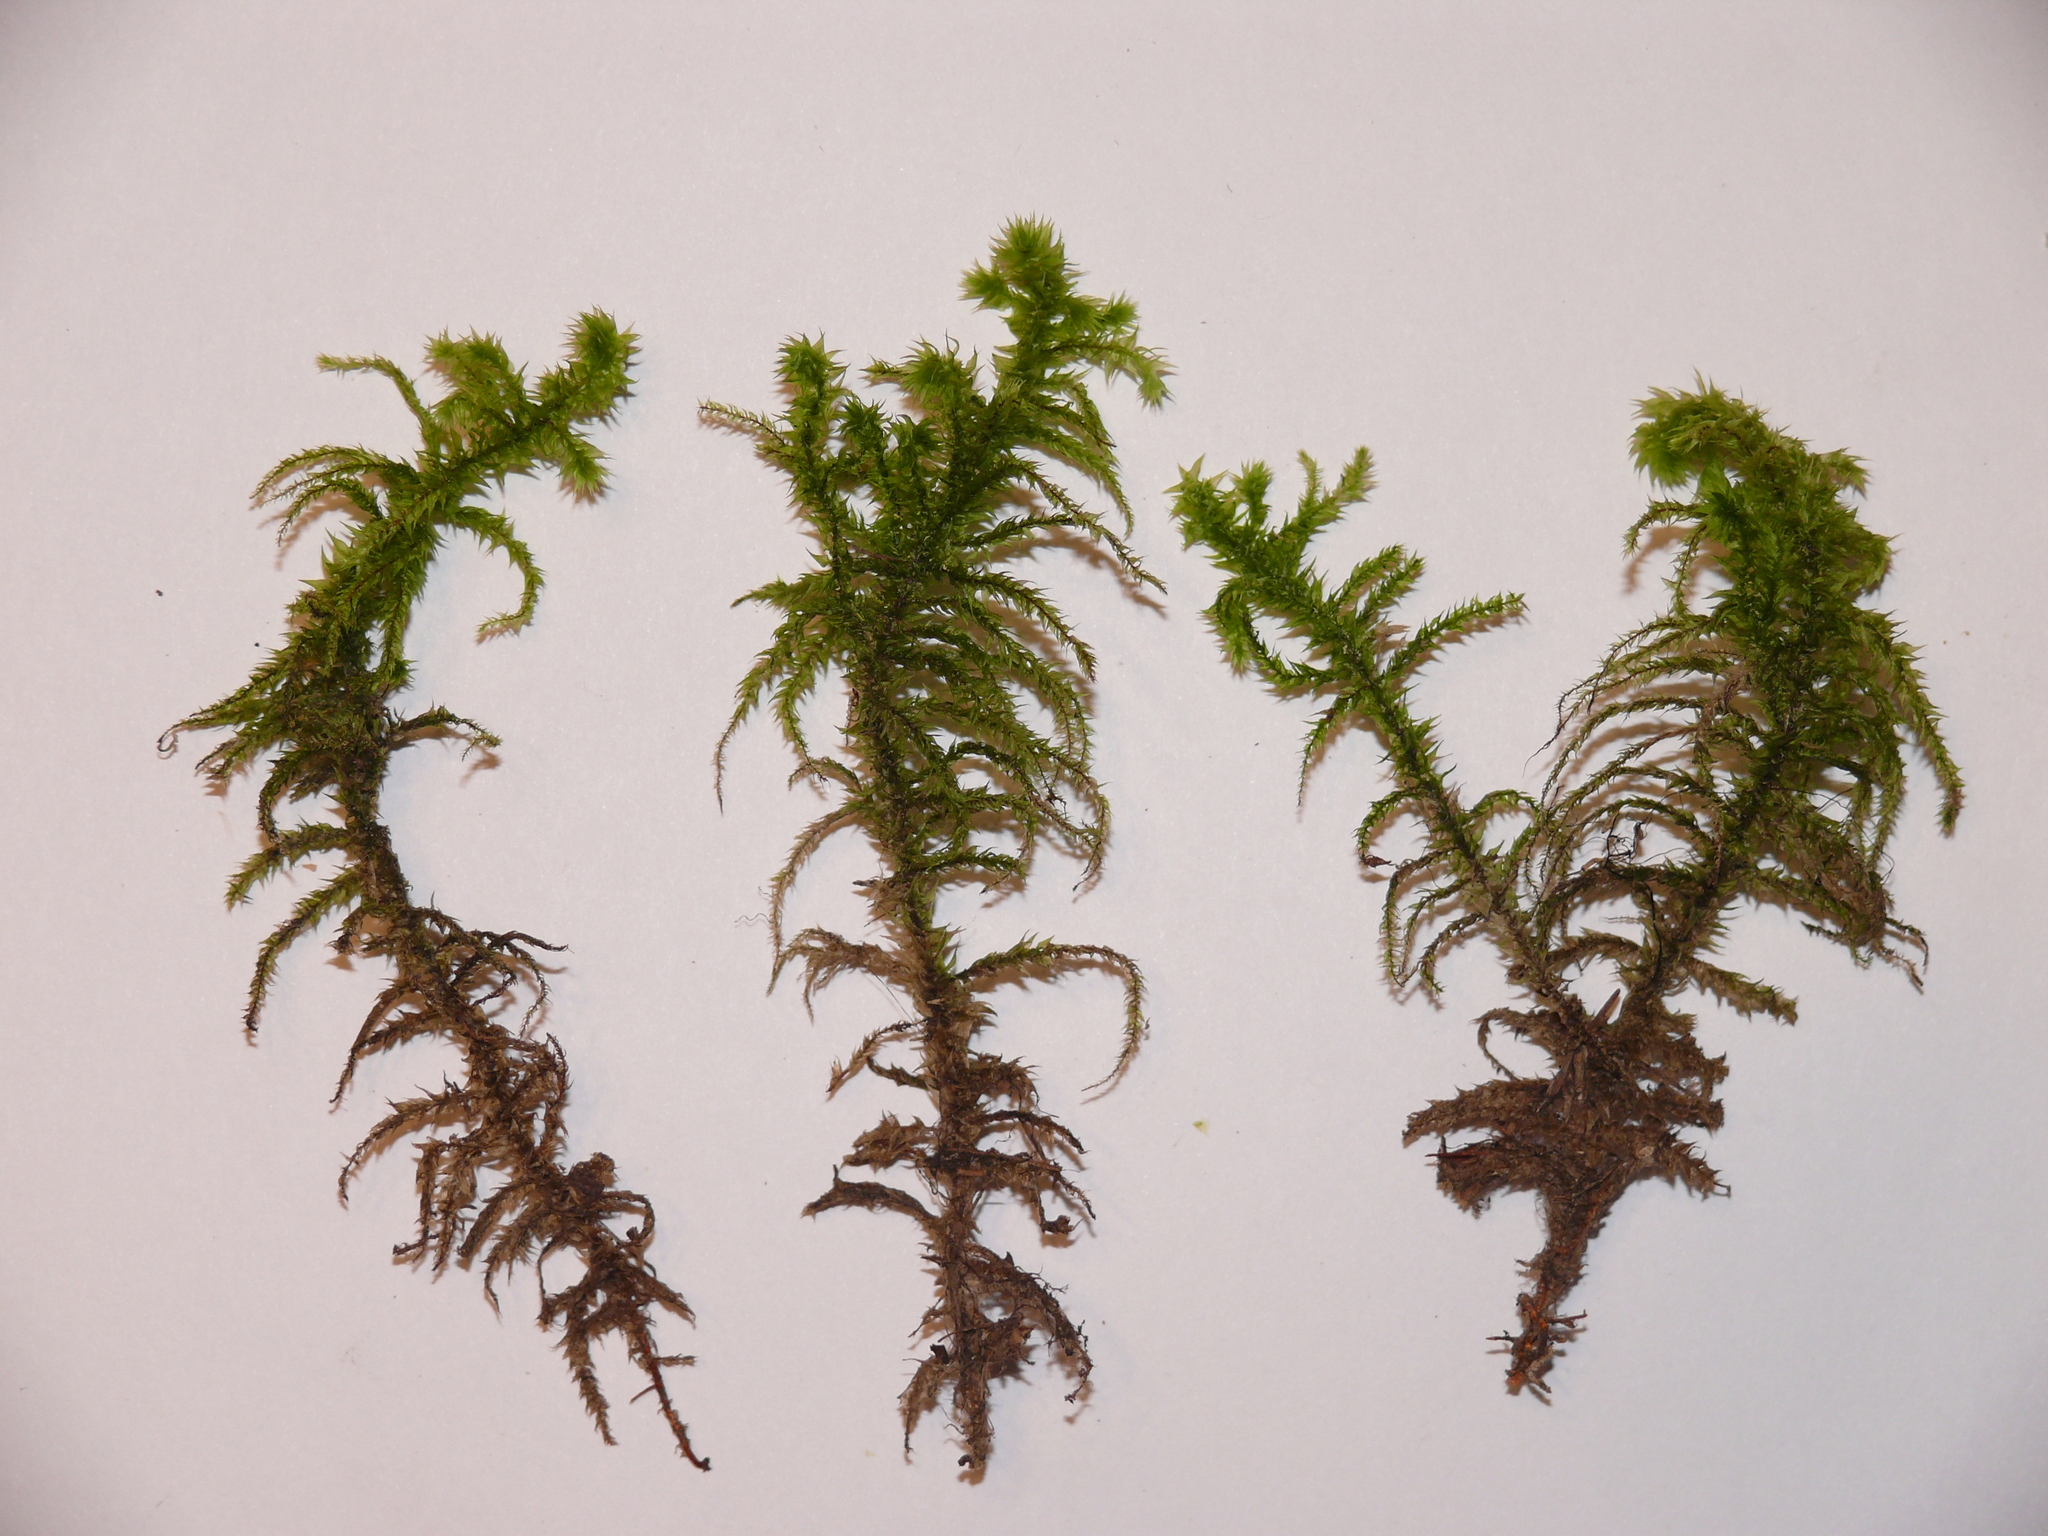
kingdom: Plantae
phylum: Bryophyta
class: Bryopsida
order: Hypnales
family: Hylocomiaceae
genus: Hylocomiadelphus
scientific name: Hylocomiadelphus triquetrus
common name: Rough goose neck moss
